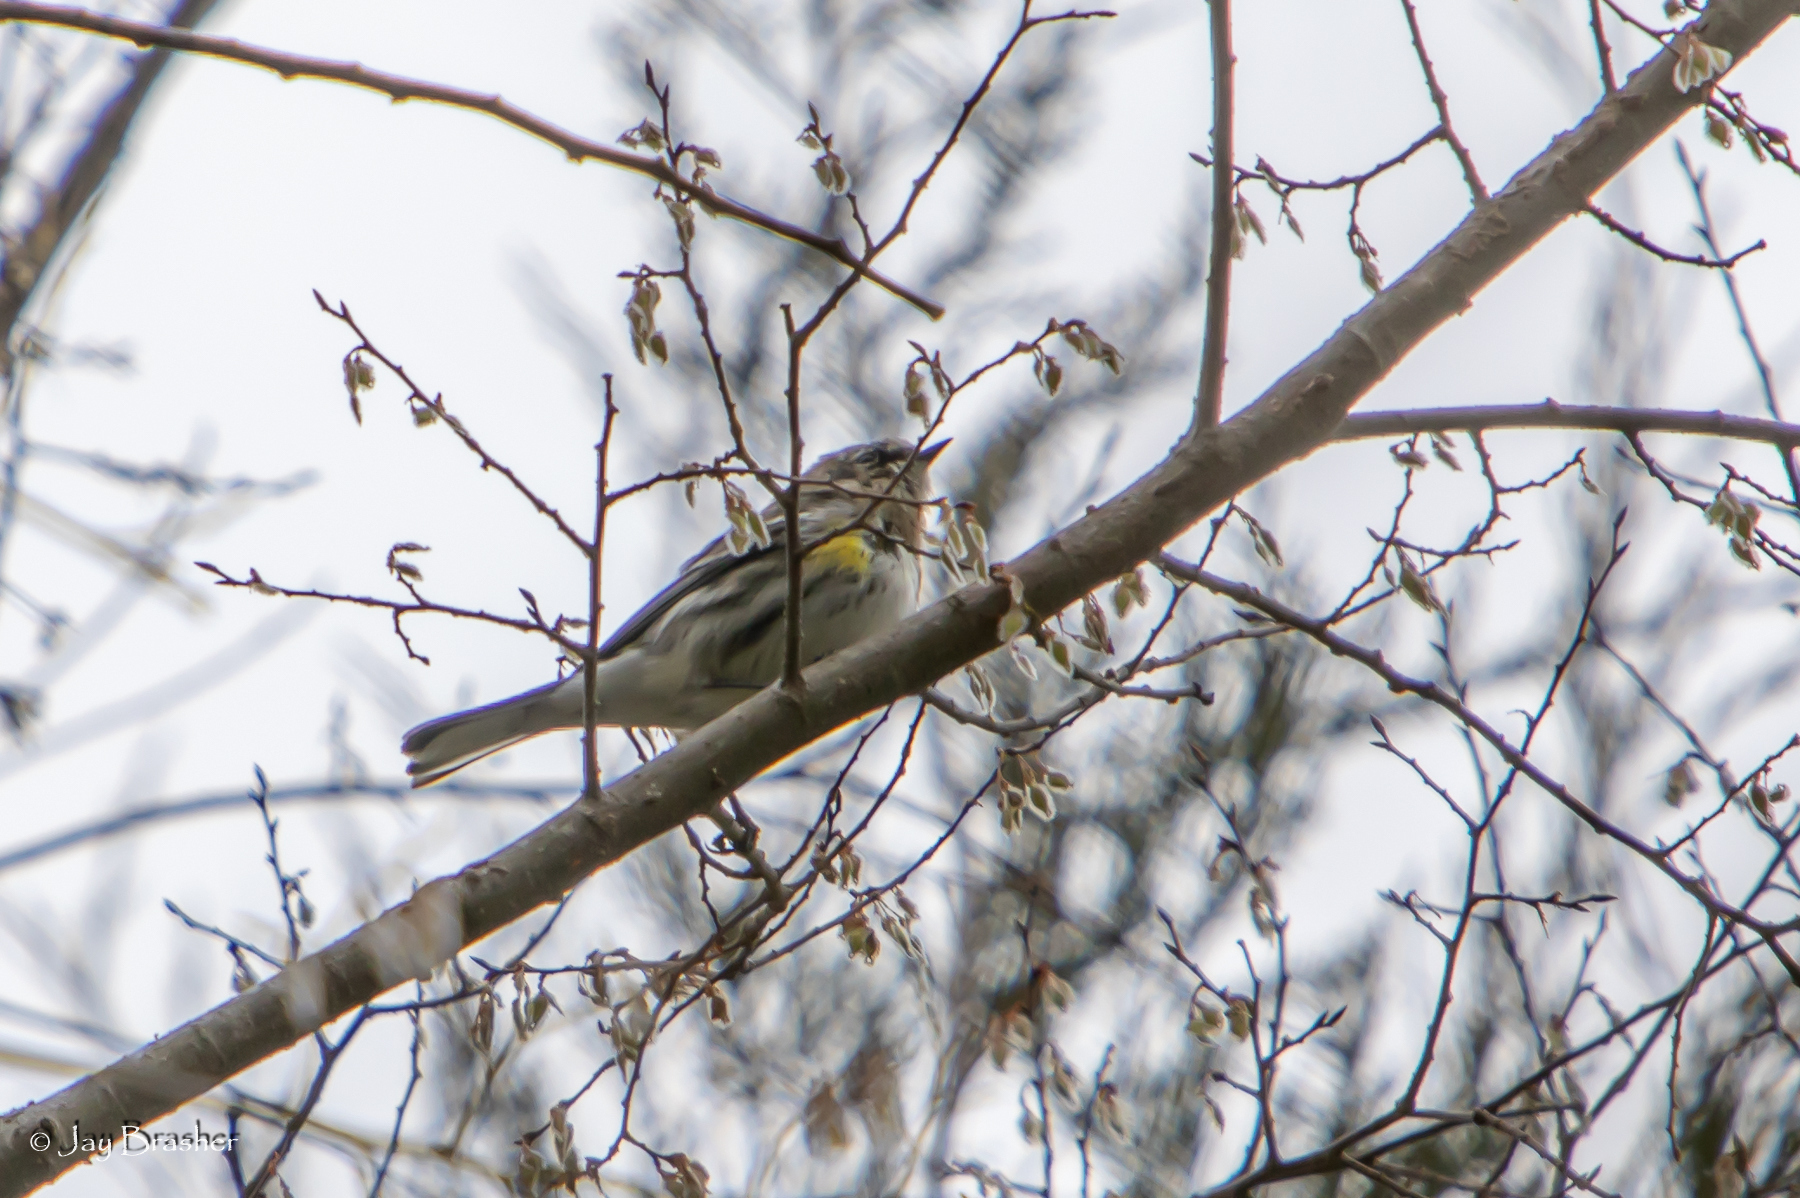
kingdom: Animalia
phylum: Chordata
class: Aves
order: Passeriformes
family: Parulidae
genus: Setophaga
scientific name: Setophaga coronata
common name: Myrtle warbler
